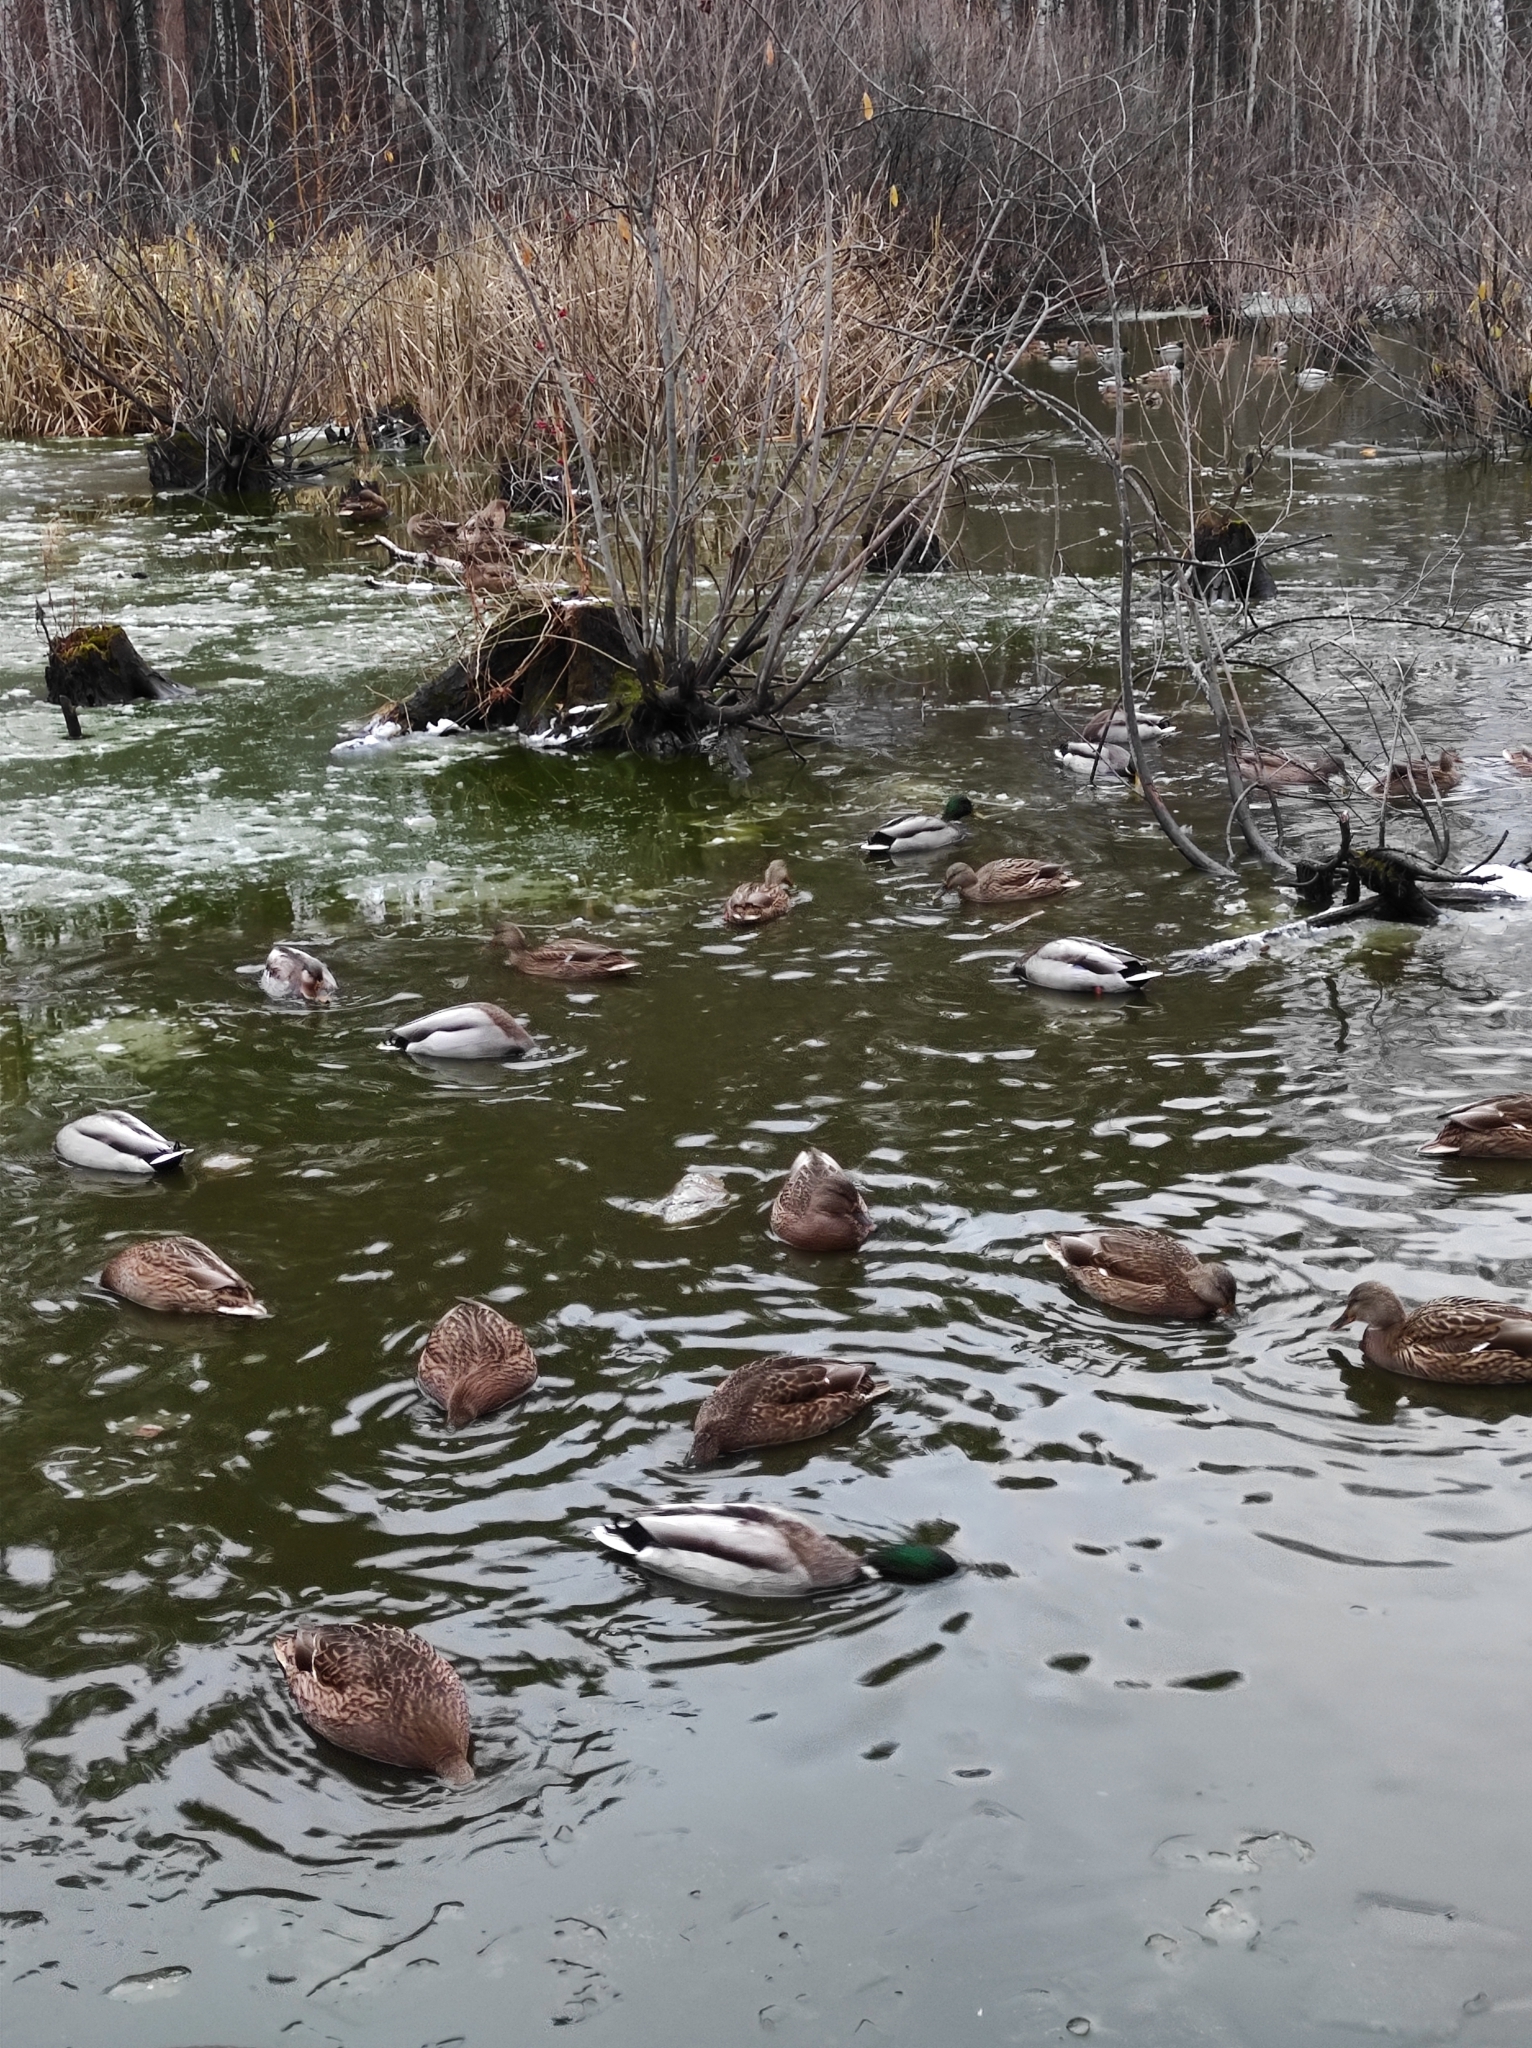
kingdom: Animalia
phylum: Chordata
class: Aves
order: Anseriformes
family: Anatidae
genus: Anas
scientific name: Anas platyrhynchos
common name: Mallard
